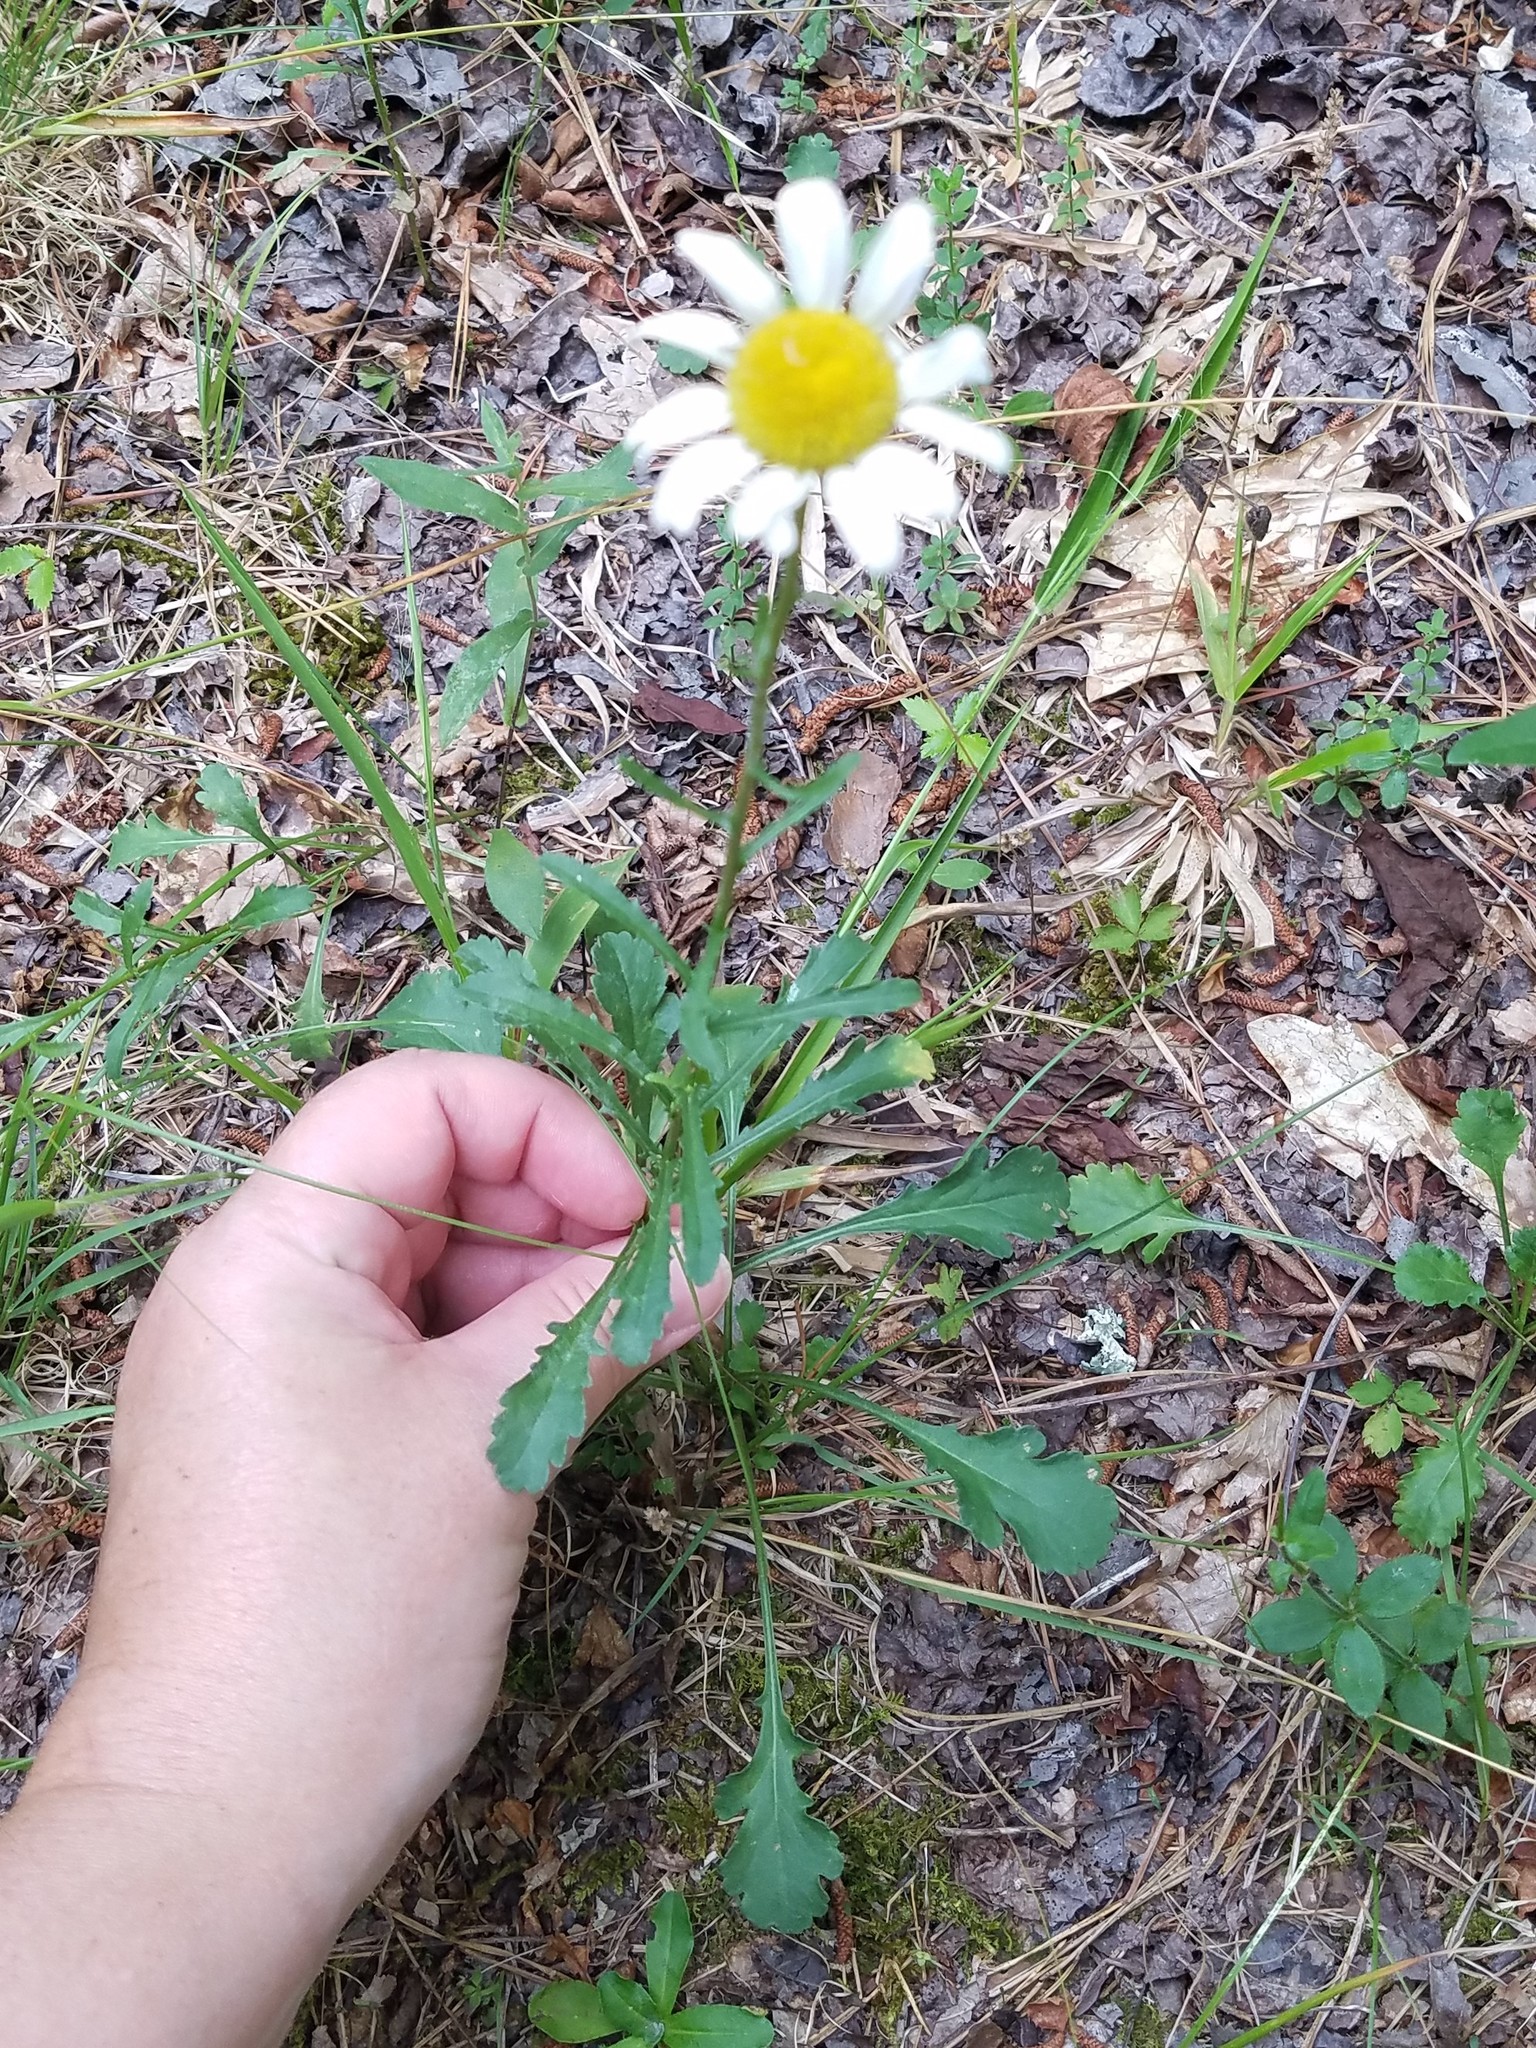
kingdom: Plantae
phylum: Tracheophyta
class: Magnoliopsida
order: Asterales
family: Asteraceae
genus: Leucanthemum
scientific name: Leucanthemum vulgare
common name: Oxeye daisy
